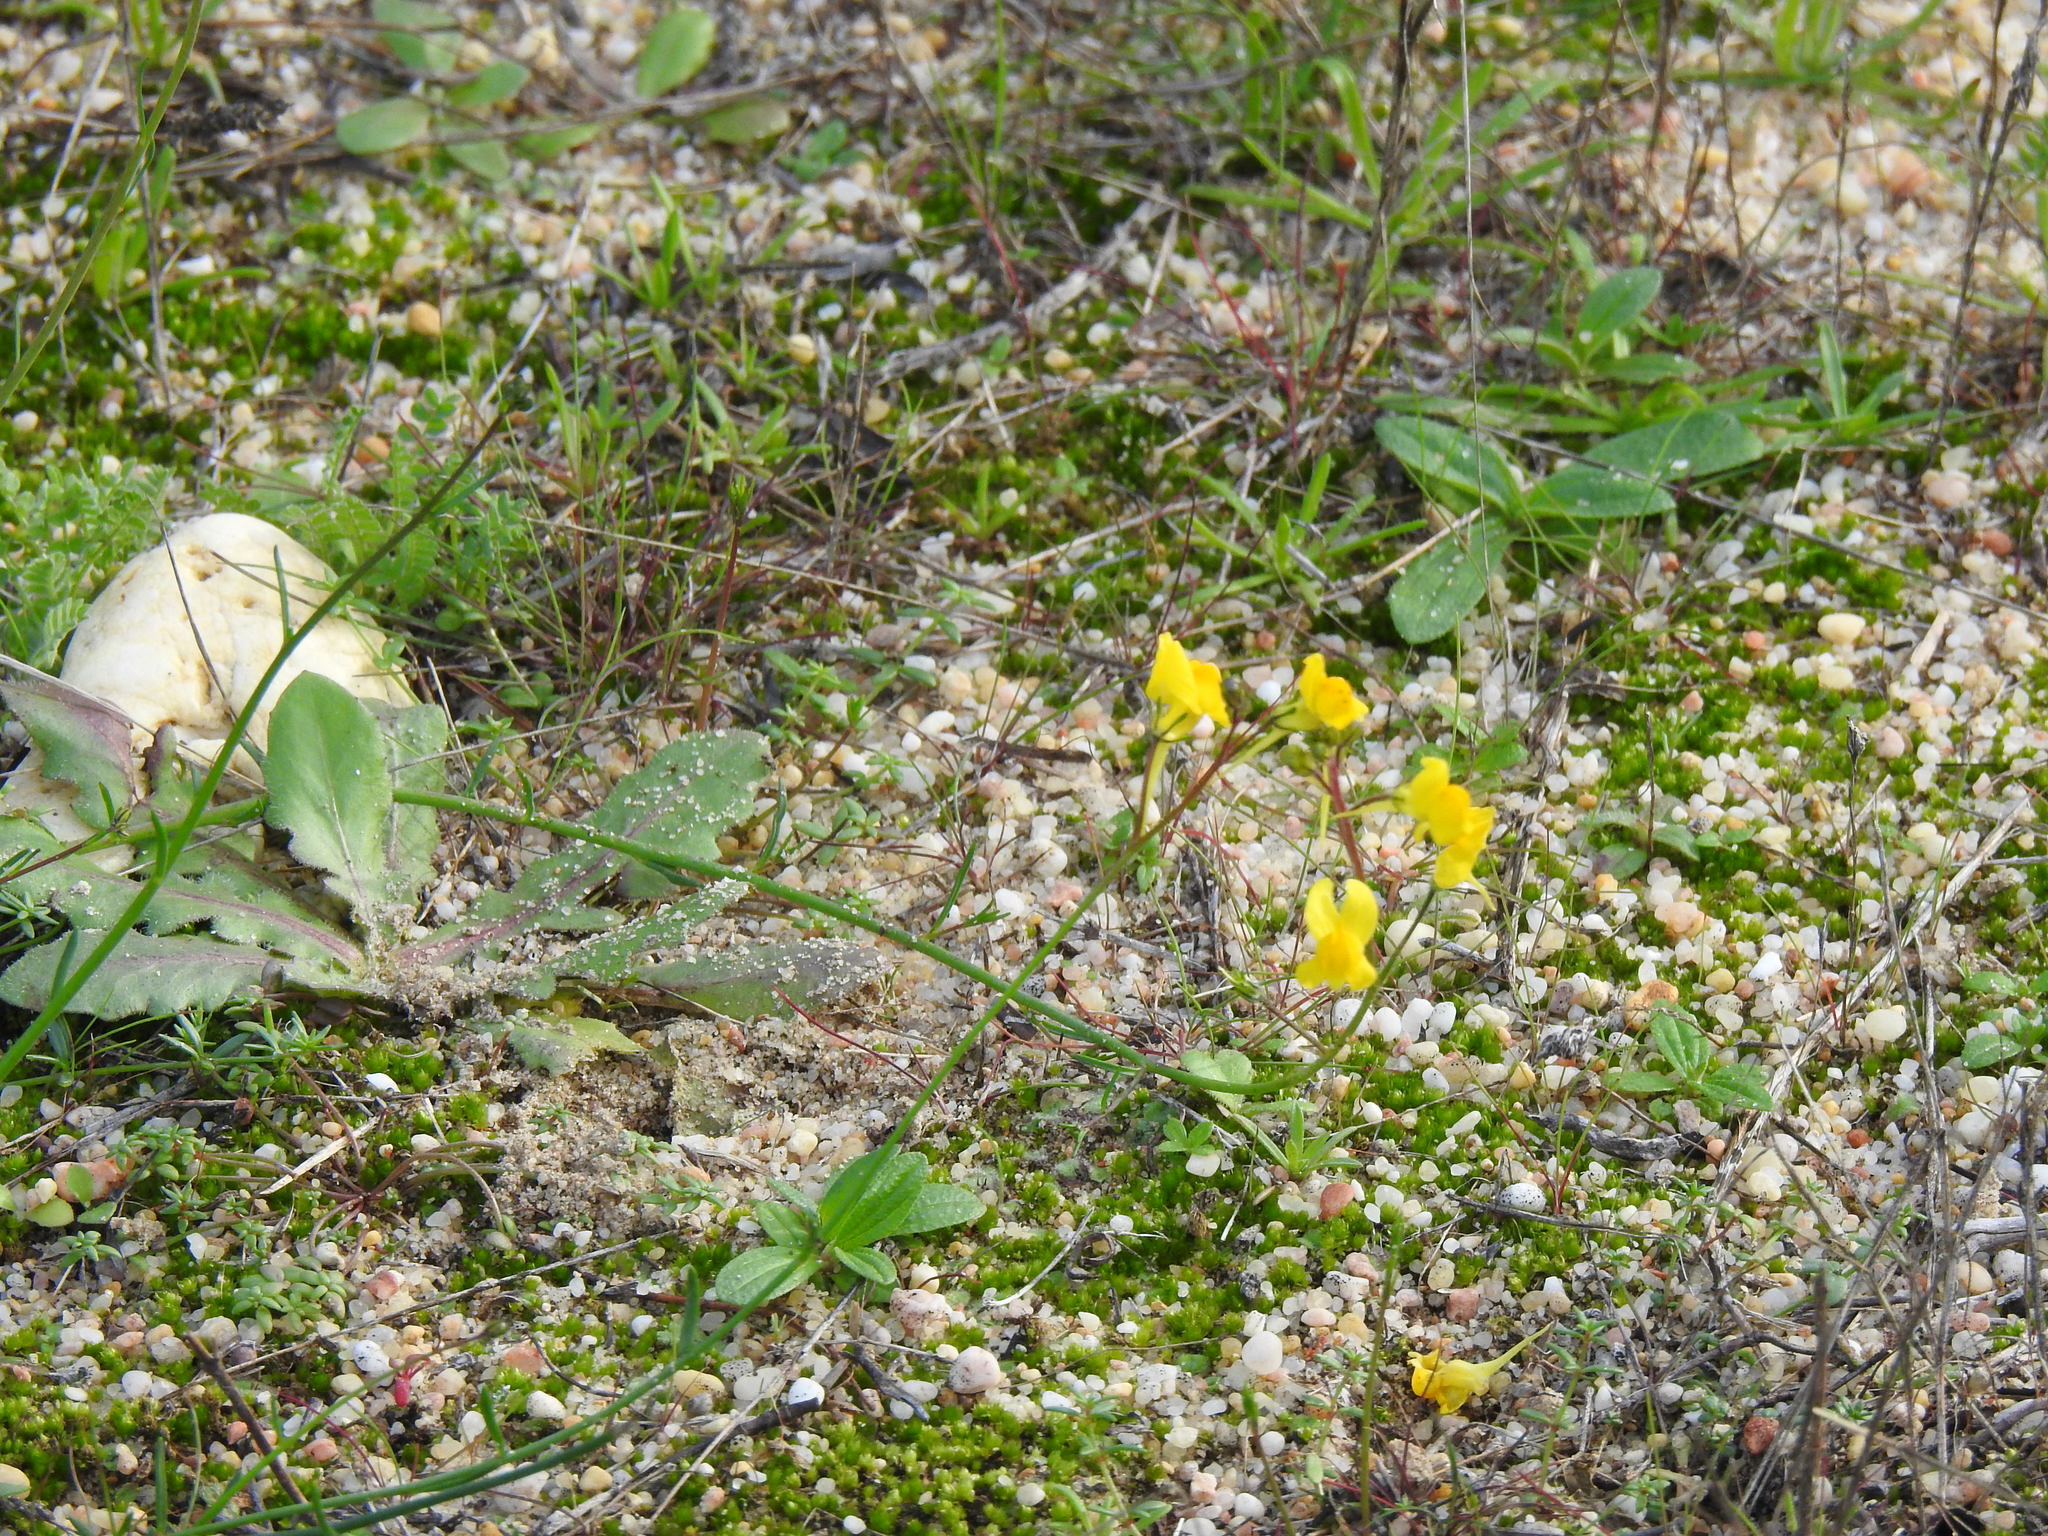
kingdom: Plantae
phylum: Tracheophyta
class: Magnoliopsida
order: Lamiales
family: Plantaginaceae
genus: Linaria
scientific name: Linaria spartea
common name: Ballast toadflax
